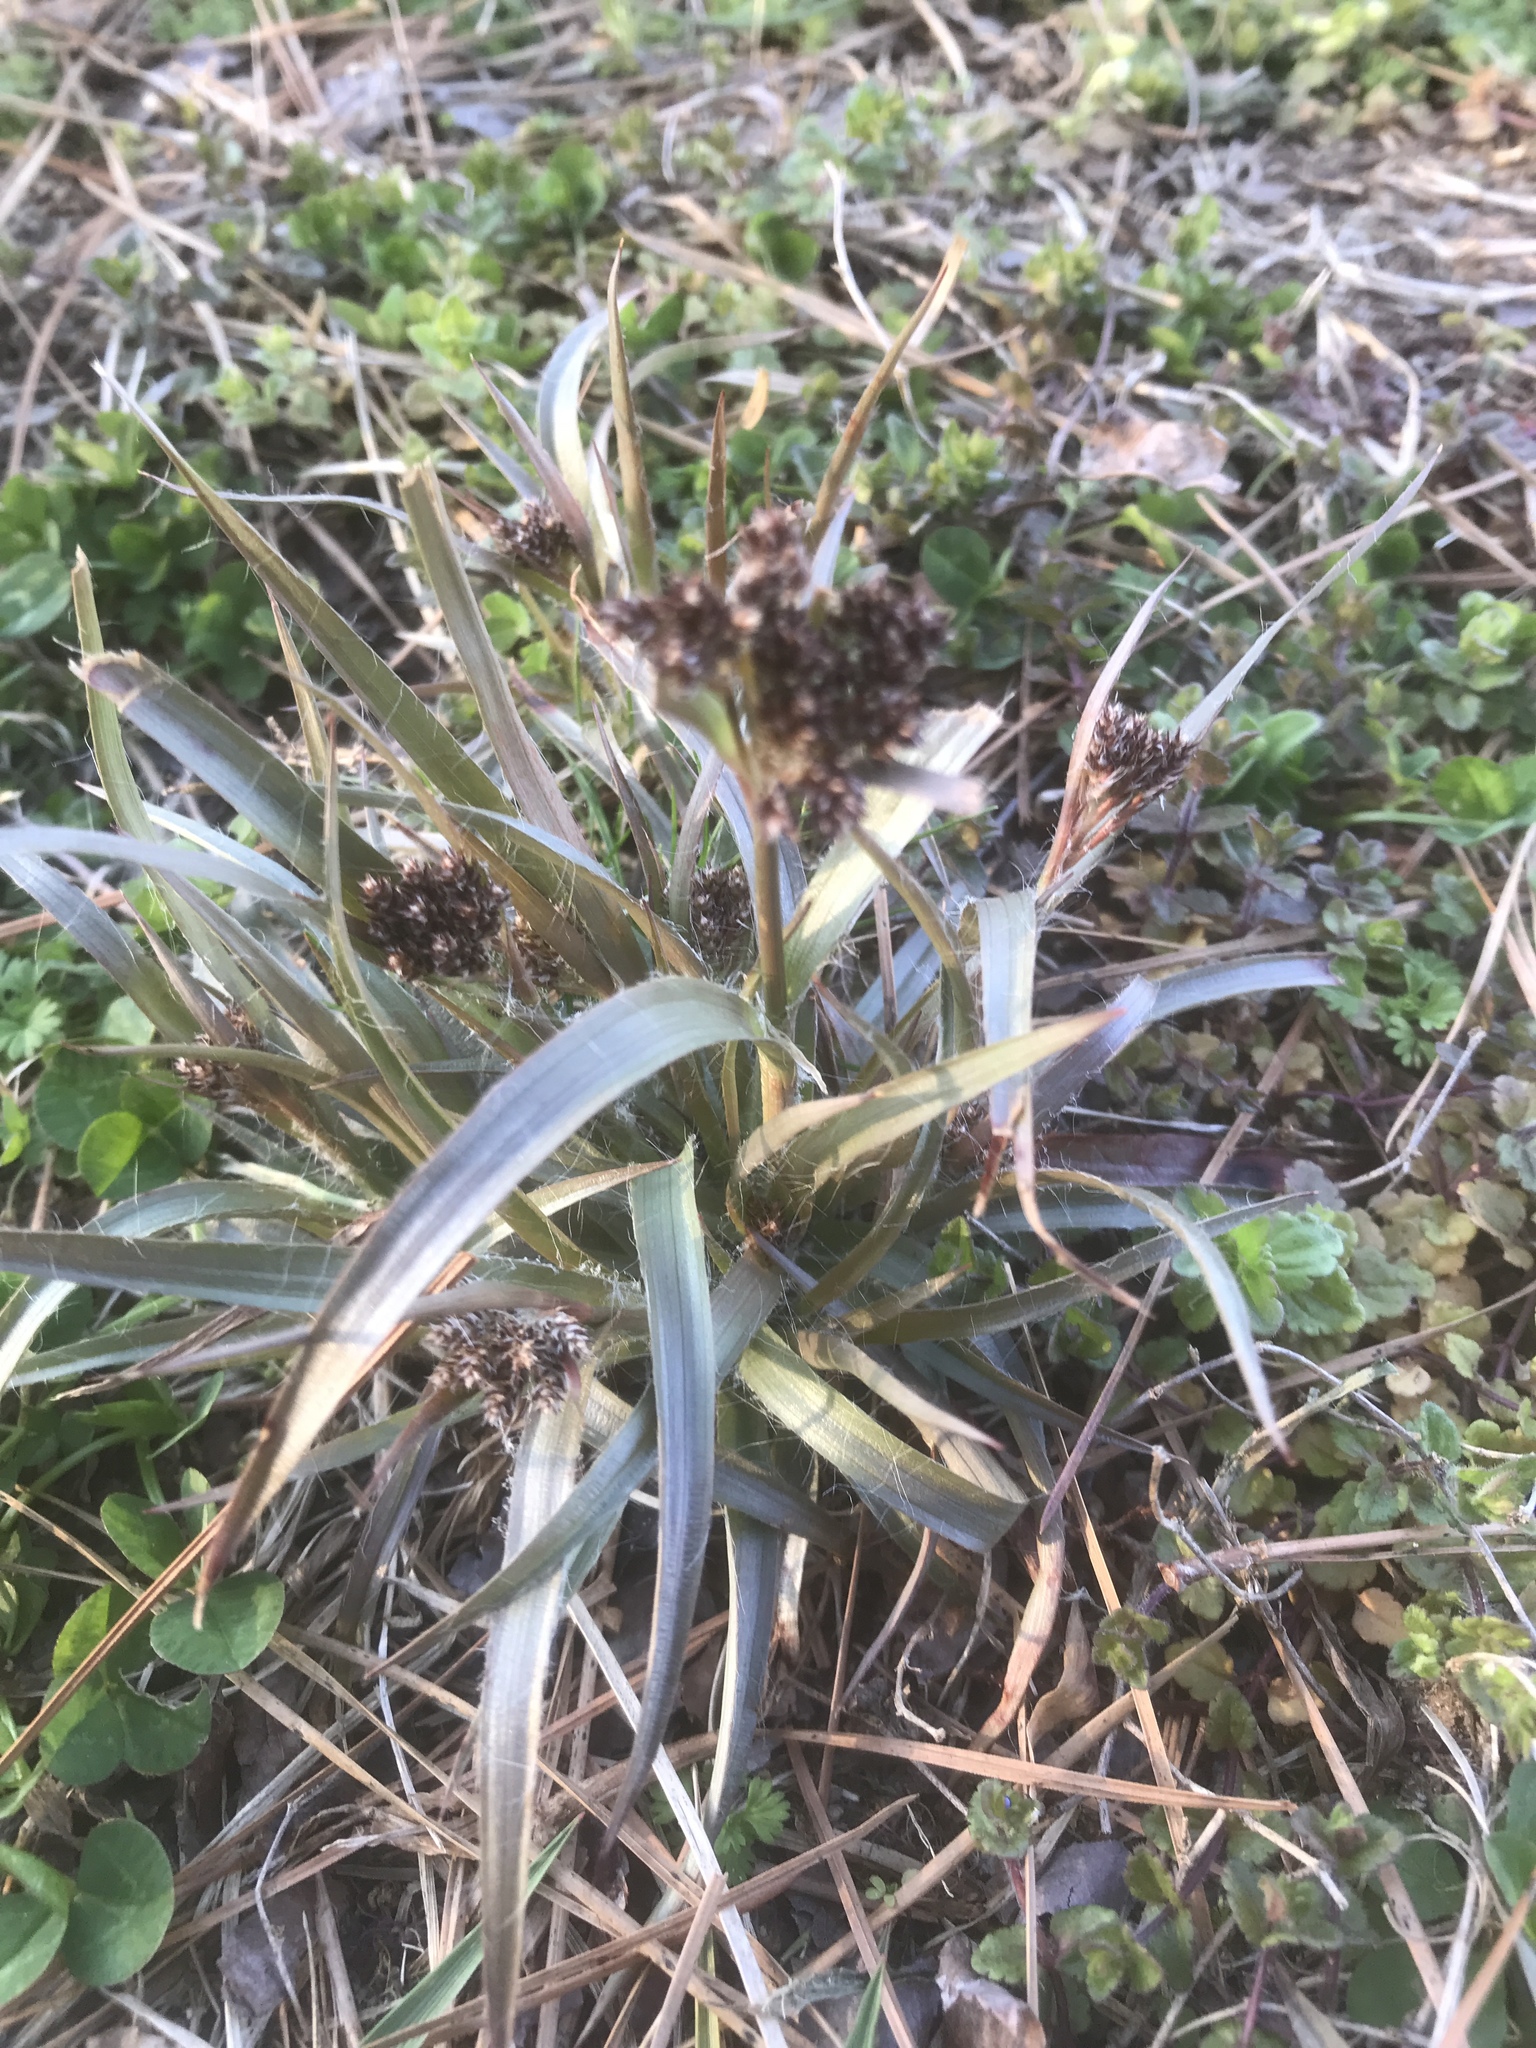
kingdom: Plantae
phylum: Tracheophyta
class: Liliopsida
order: Poales
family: Juncaceae
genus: Luzula
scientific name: Luzula multiflora
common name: Heath wood-rush
